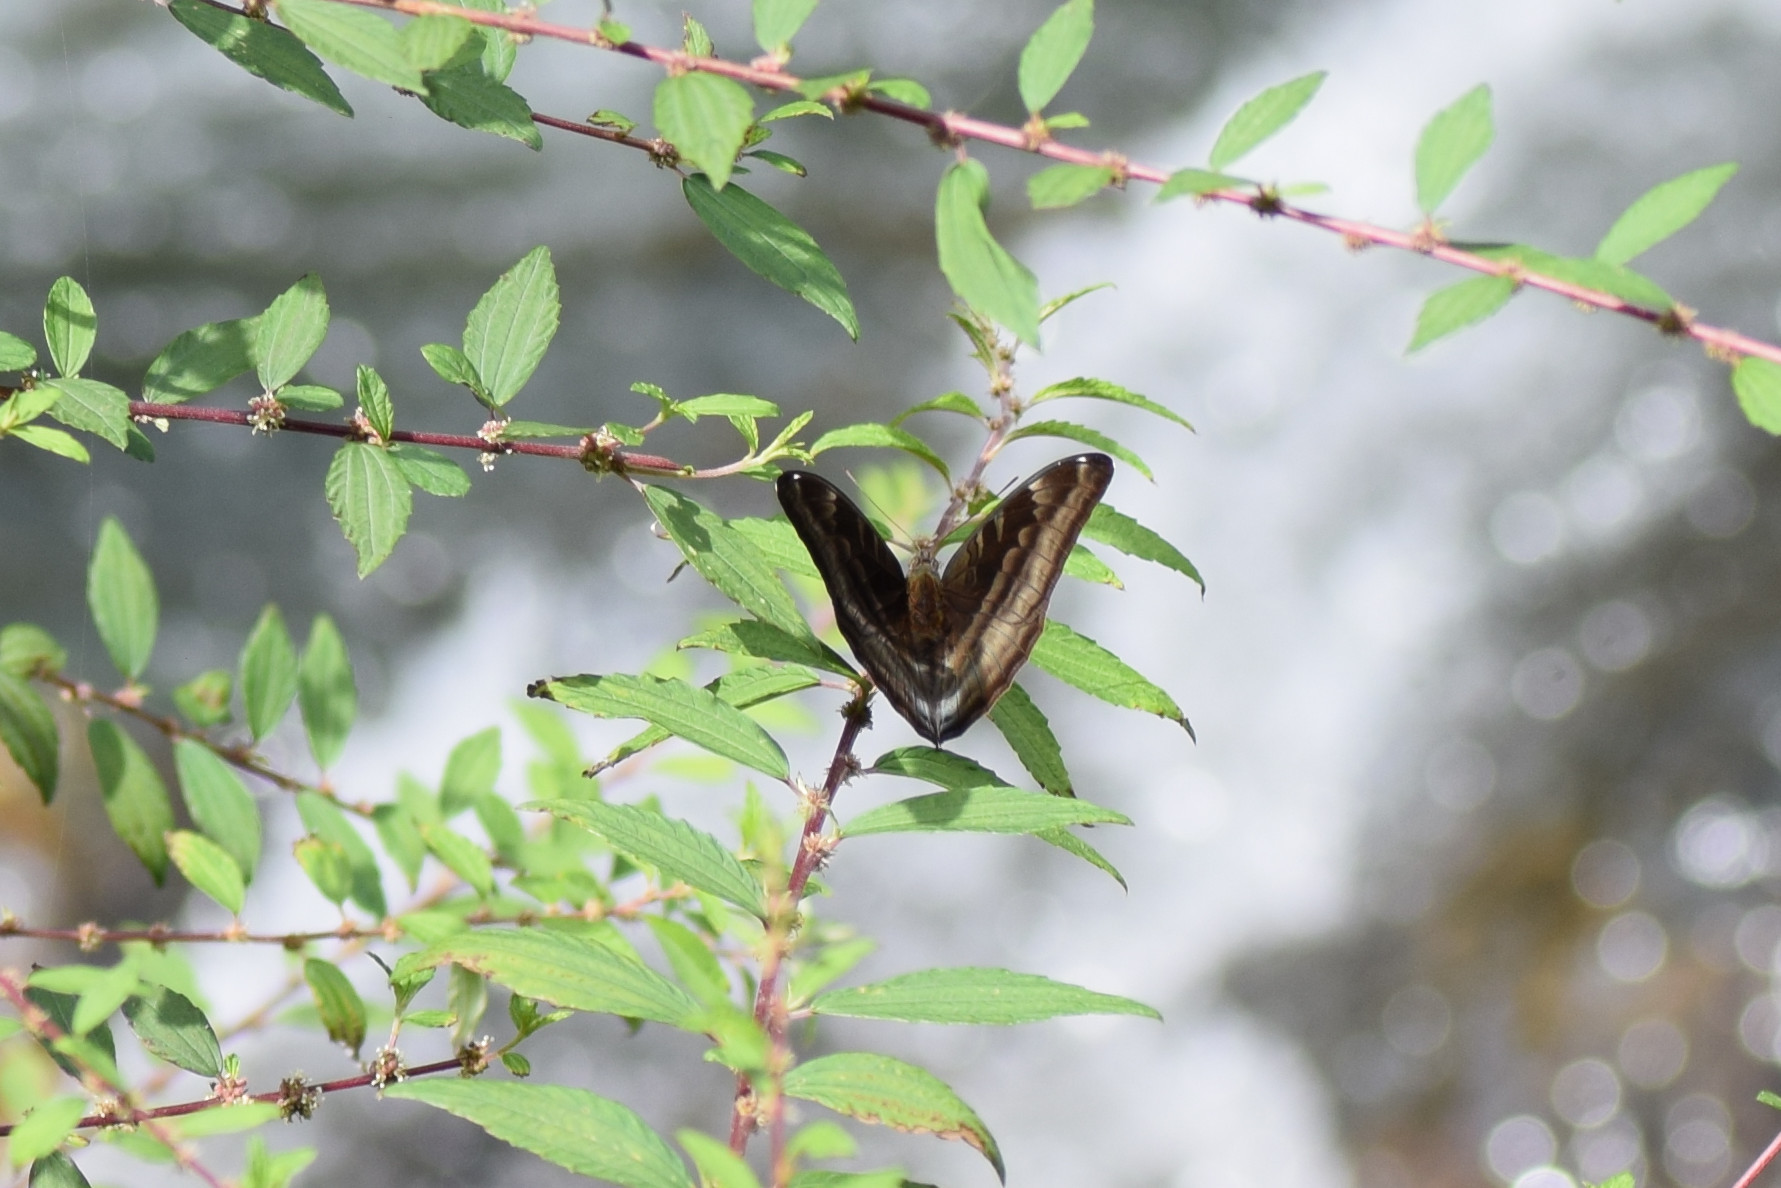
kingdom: Animalia
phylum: Arthropoda
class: Insecta
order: Lepidoptera
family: Nymphalidae
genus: Limenitis
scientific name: Limenitis Auzakia danava
